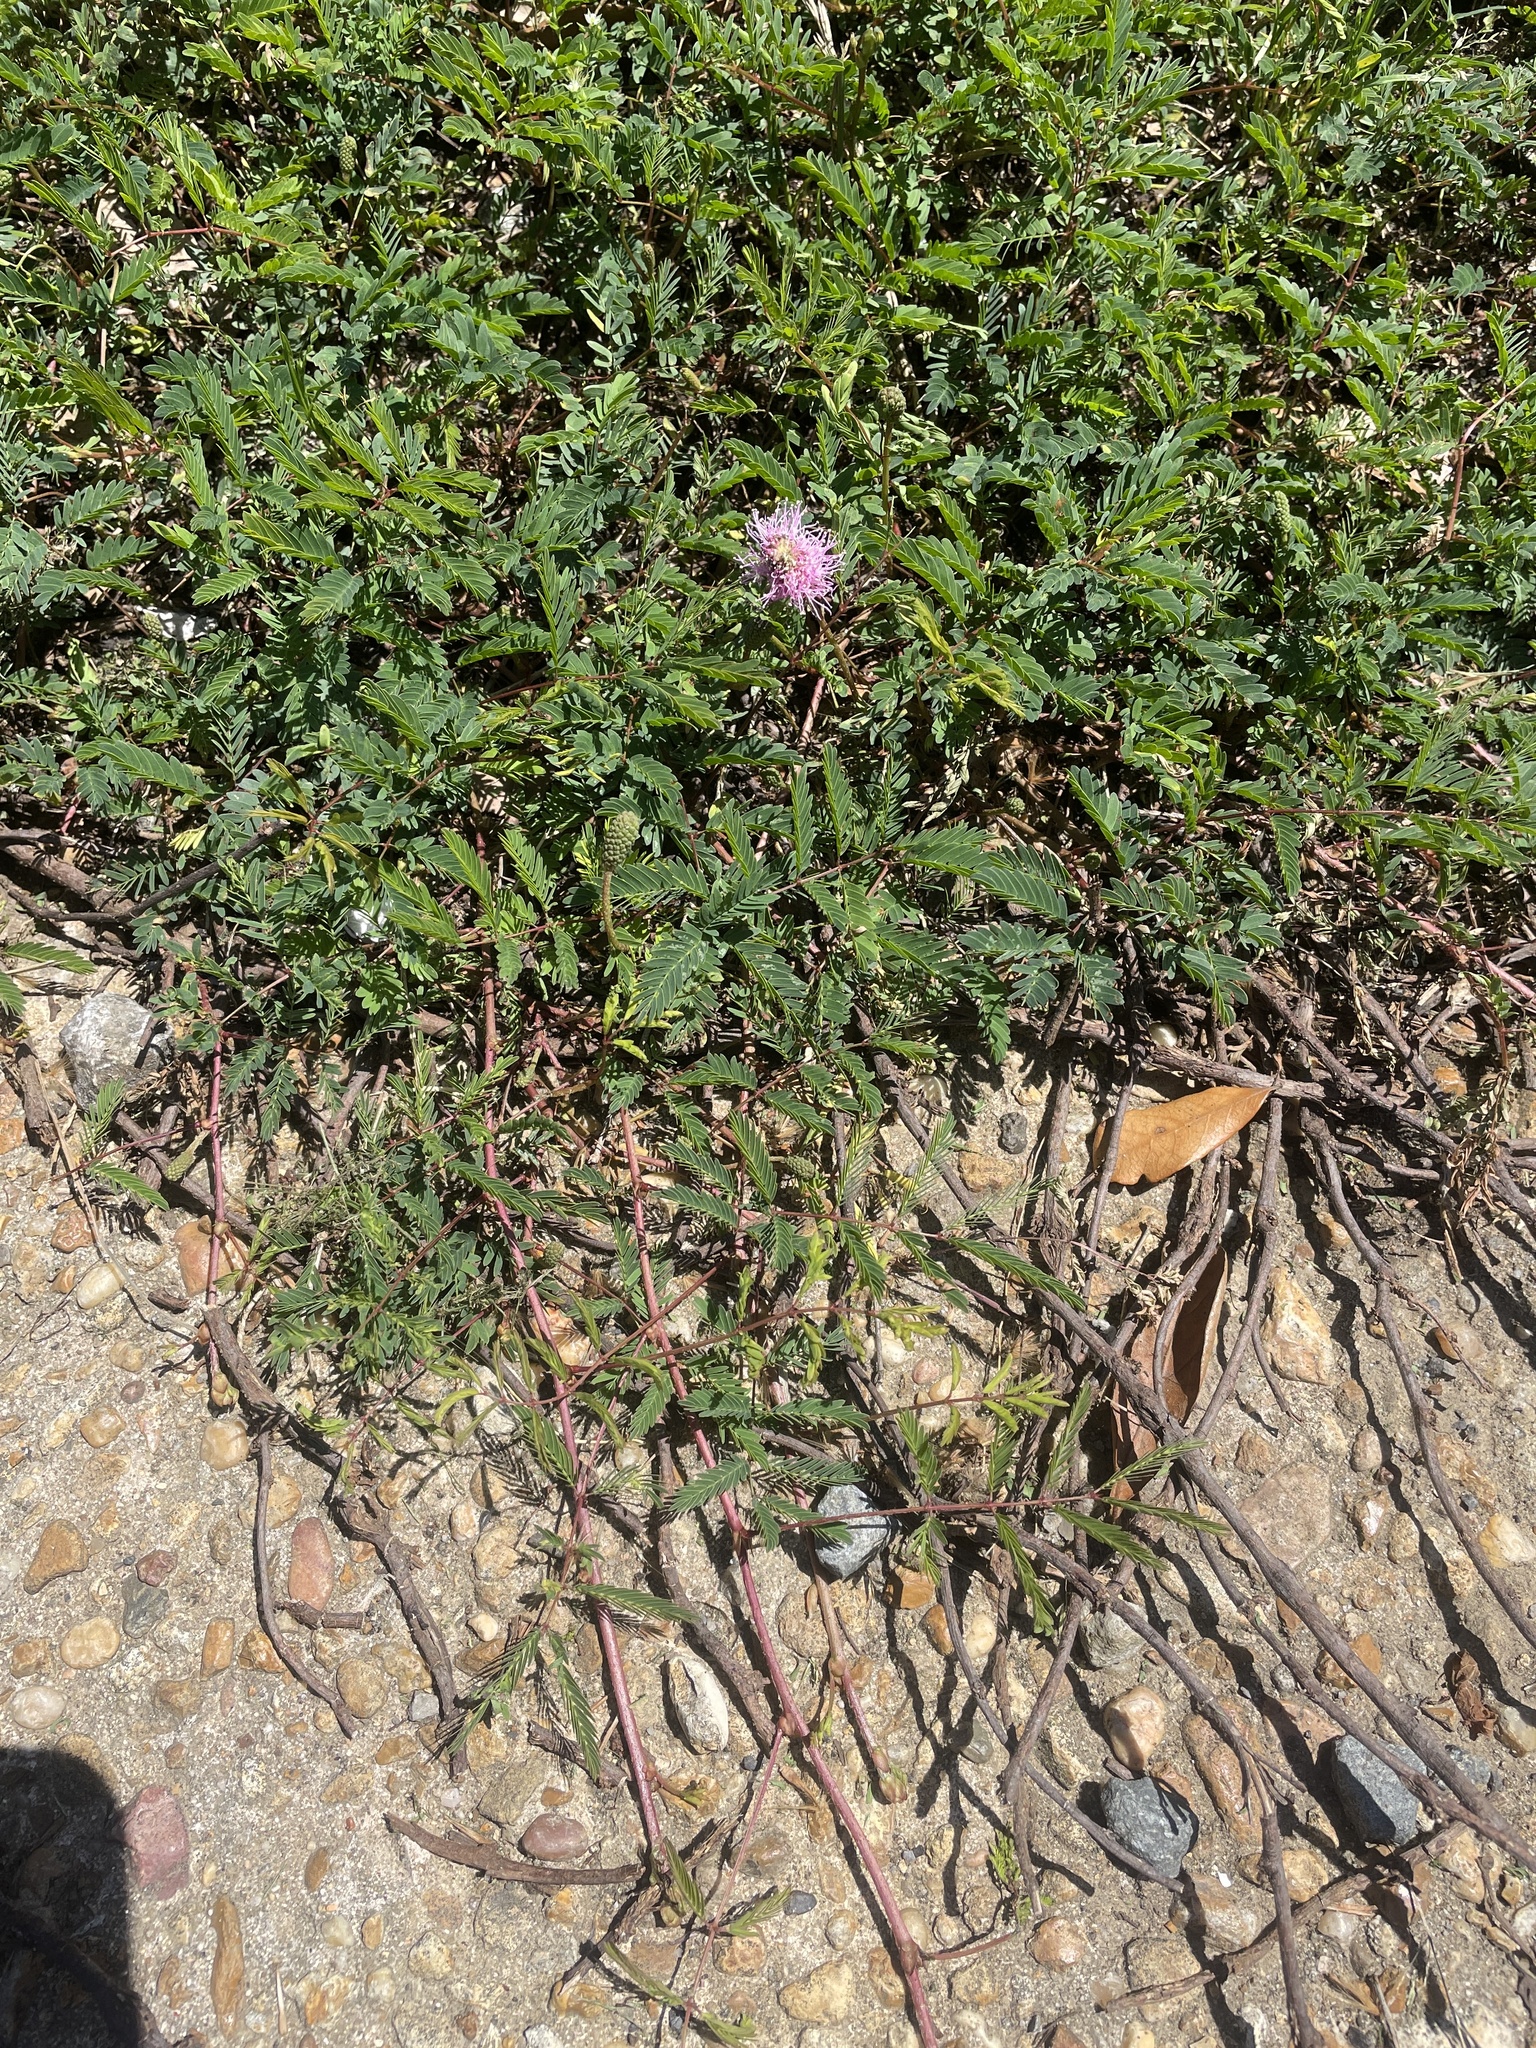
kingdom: Plantae
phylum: Tracheophyta
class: Magnoliopsida
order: Fabales
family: Fabaceae
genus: Mimosa
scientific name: Mimosa strigillosa
